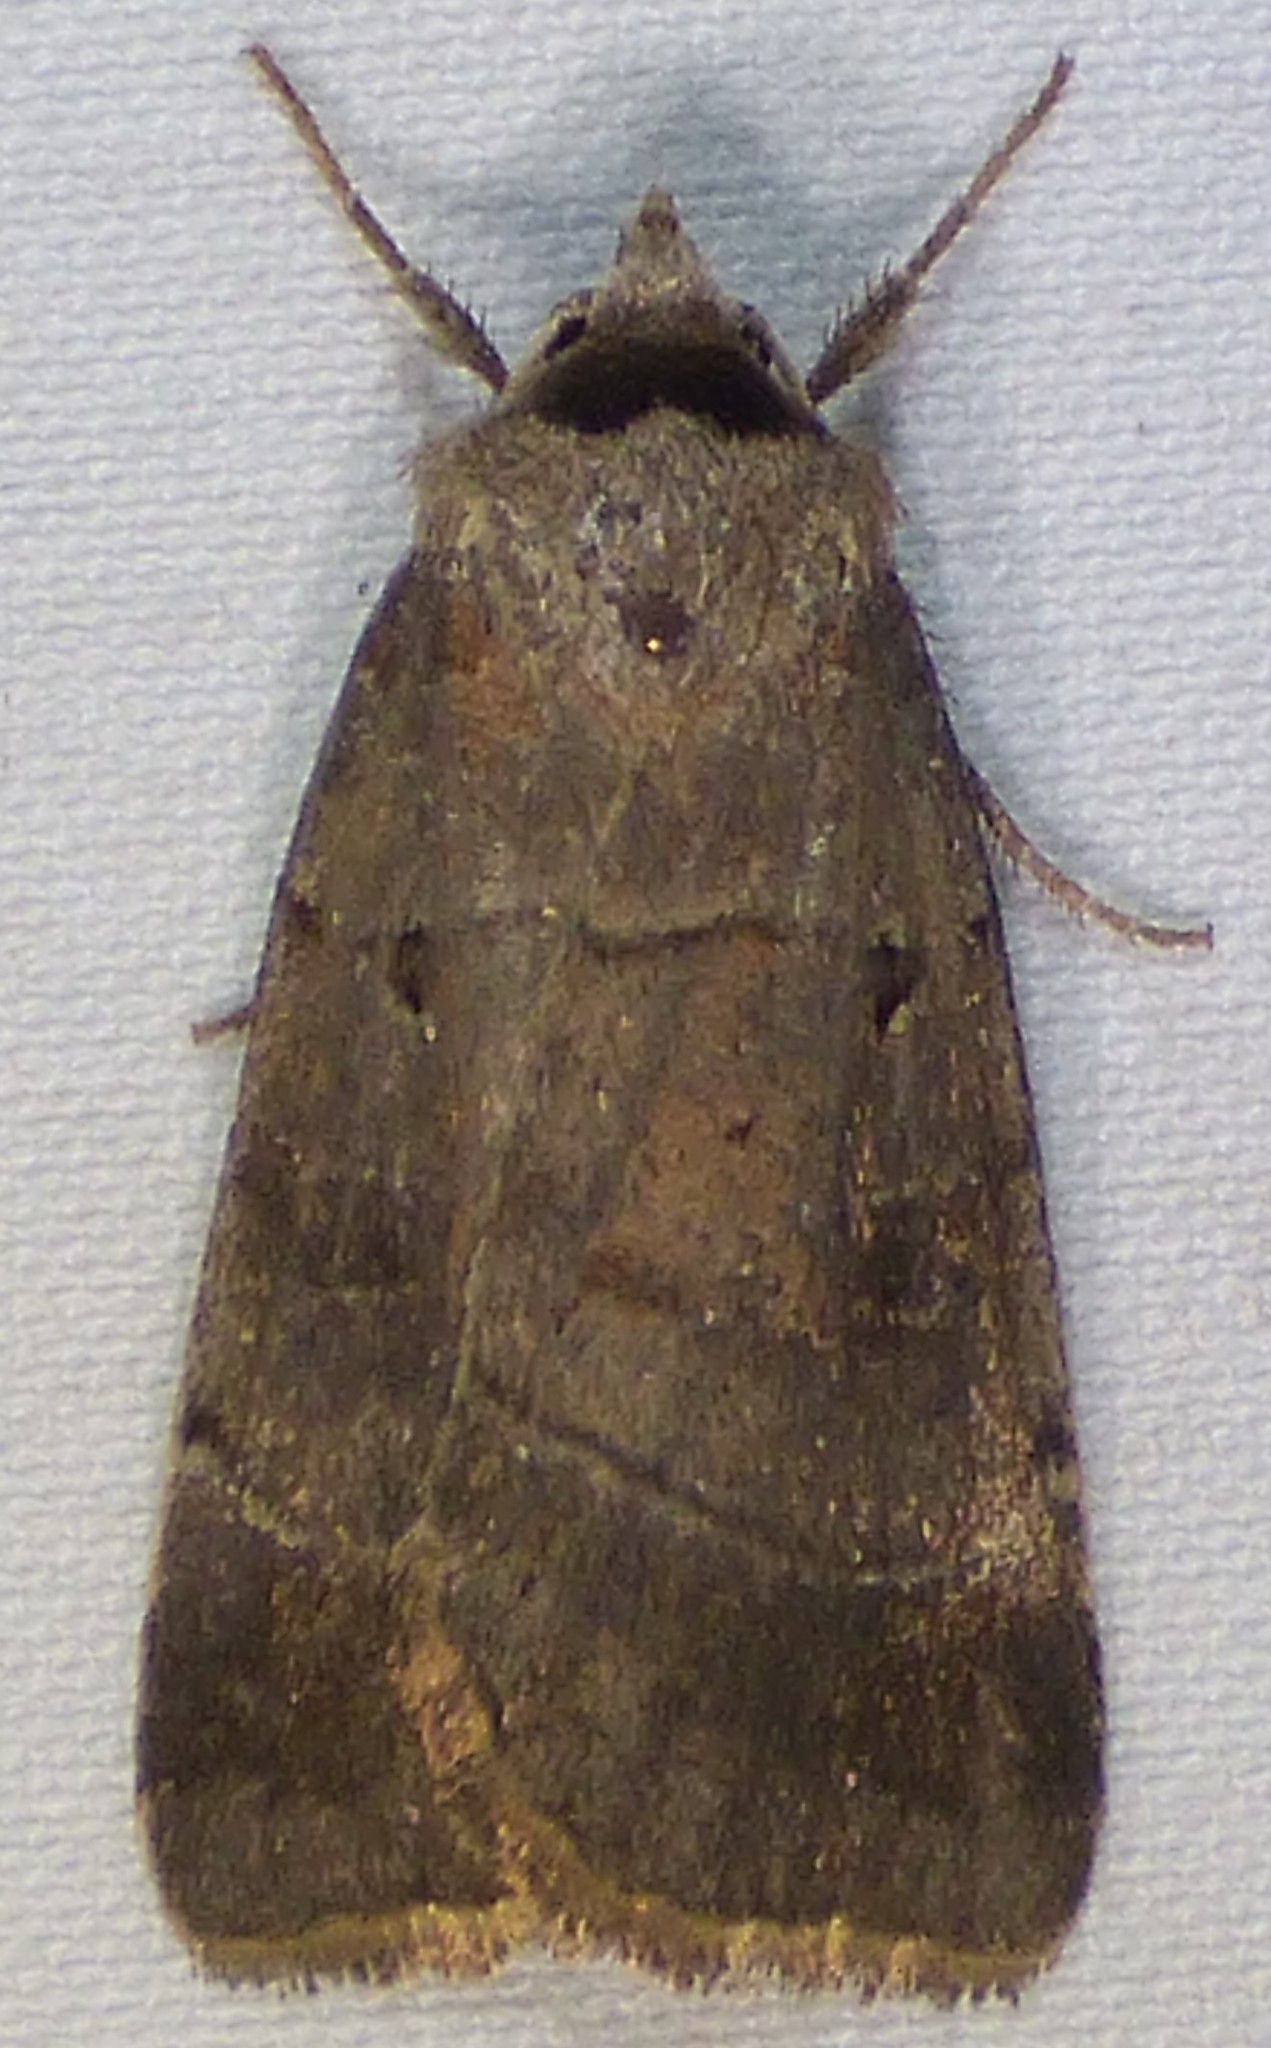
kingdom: Animalia
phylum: Arthropoda
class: Insecta
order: Lepidoptera
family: Noctuidae
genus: Agnorisma
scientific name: Agnorisma badinodis
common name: Pale-banded dart
